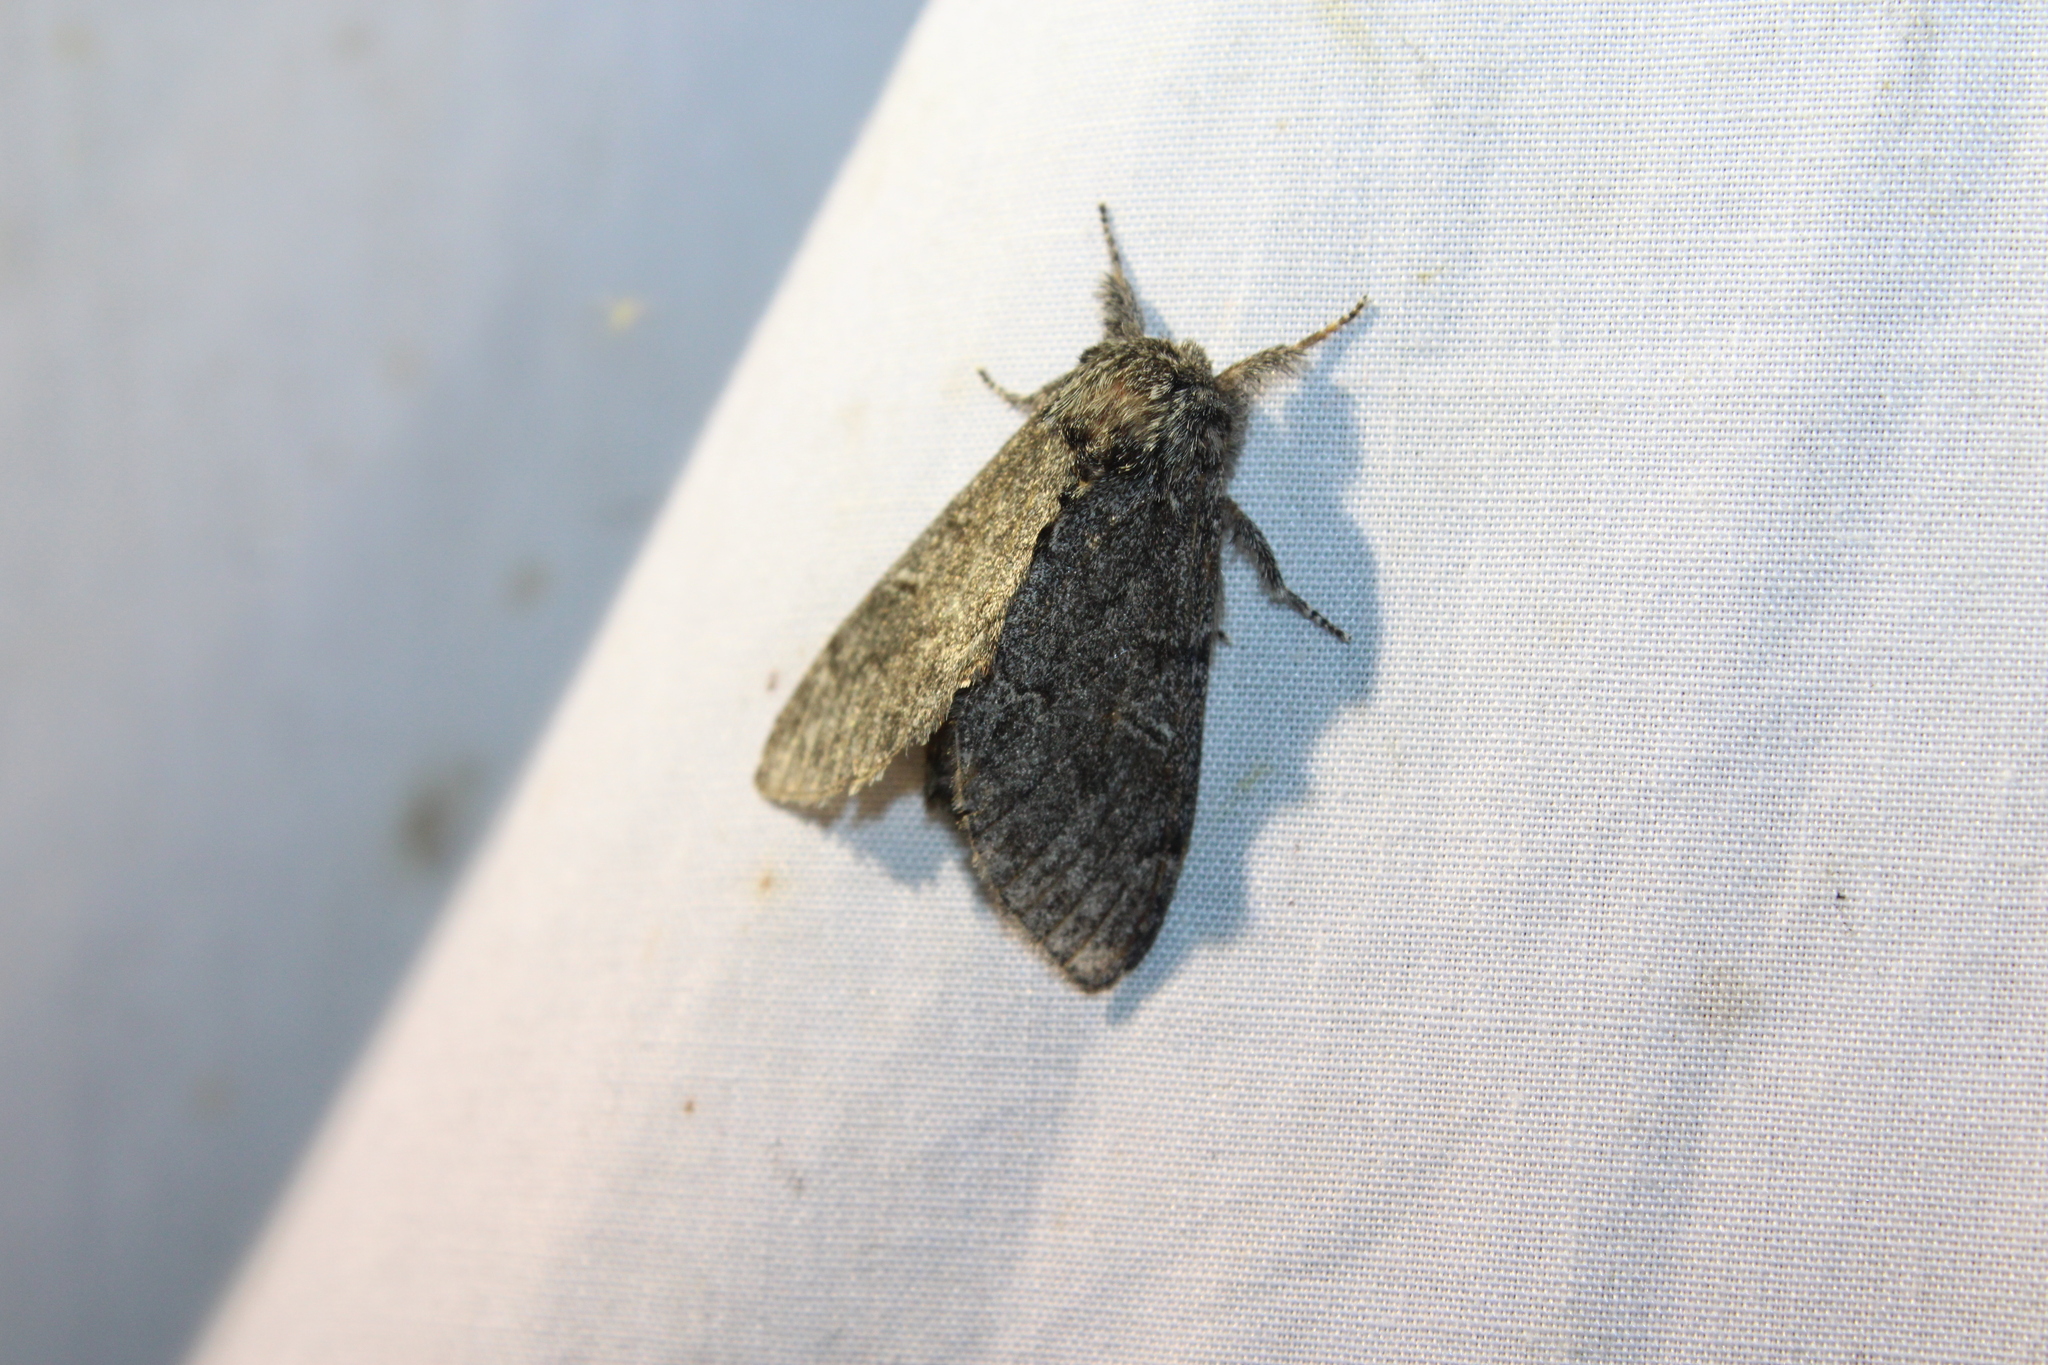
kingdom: Animalia
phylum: Arthropoda
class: Insecta
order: Lepidoptera
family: Notodontidae
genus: Notodonta
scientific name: Notodonta torva
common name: Large dark prominent
